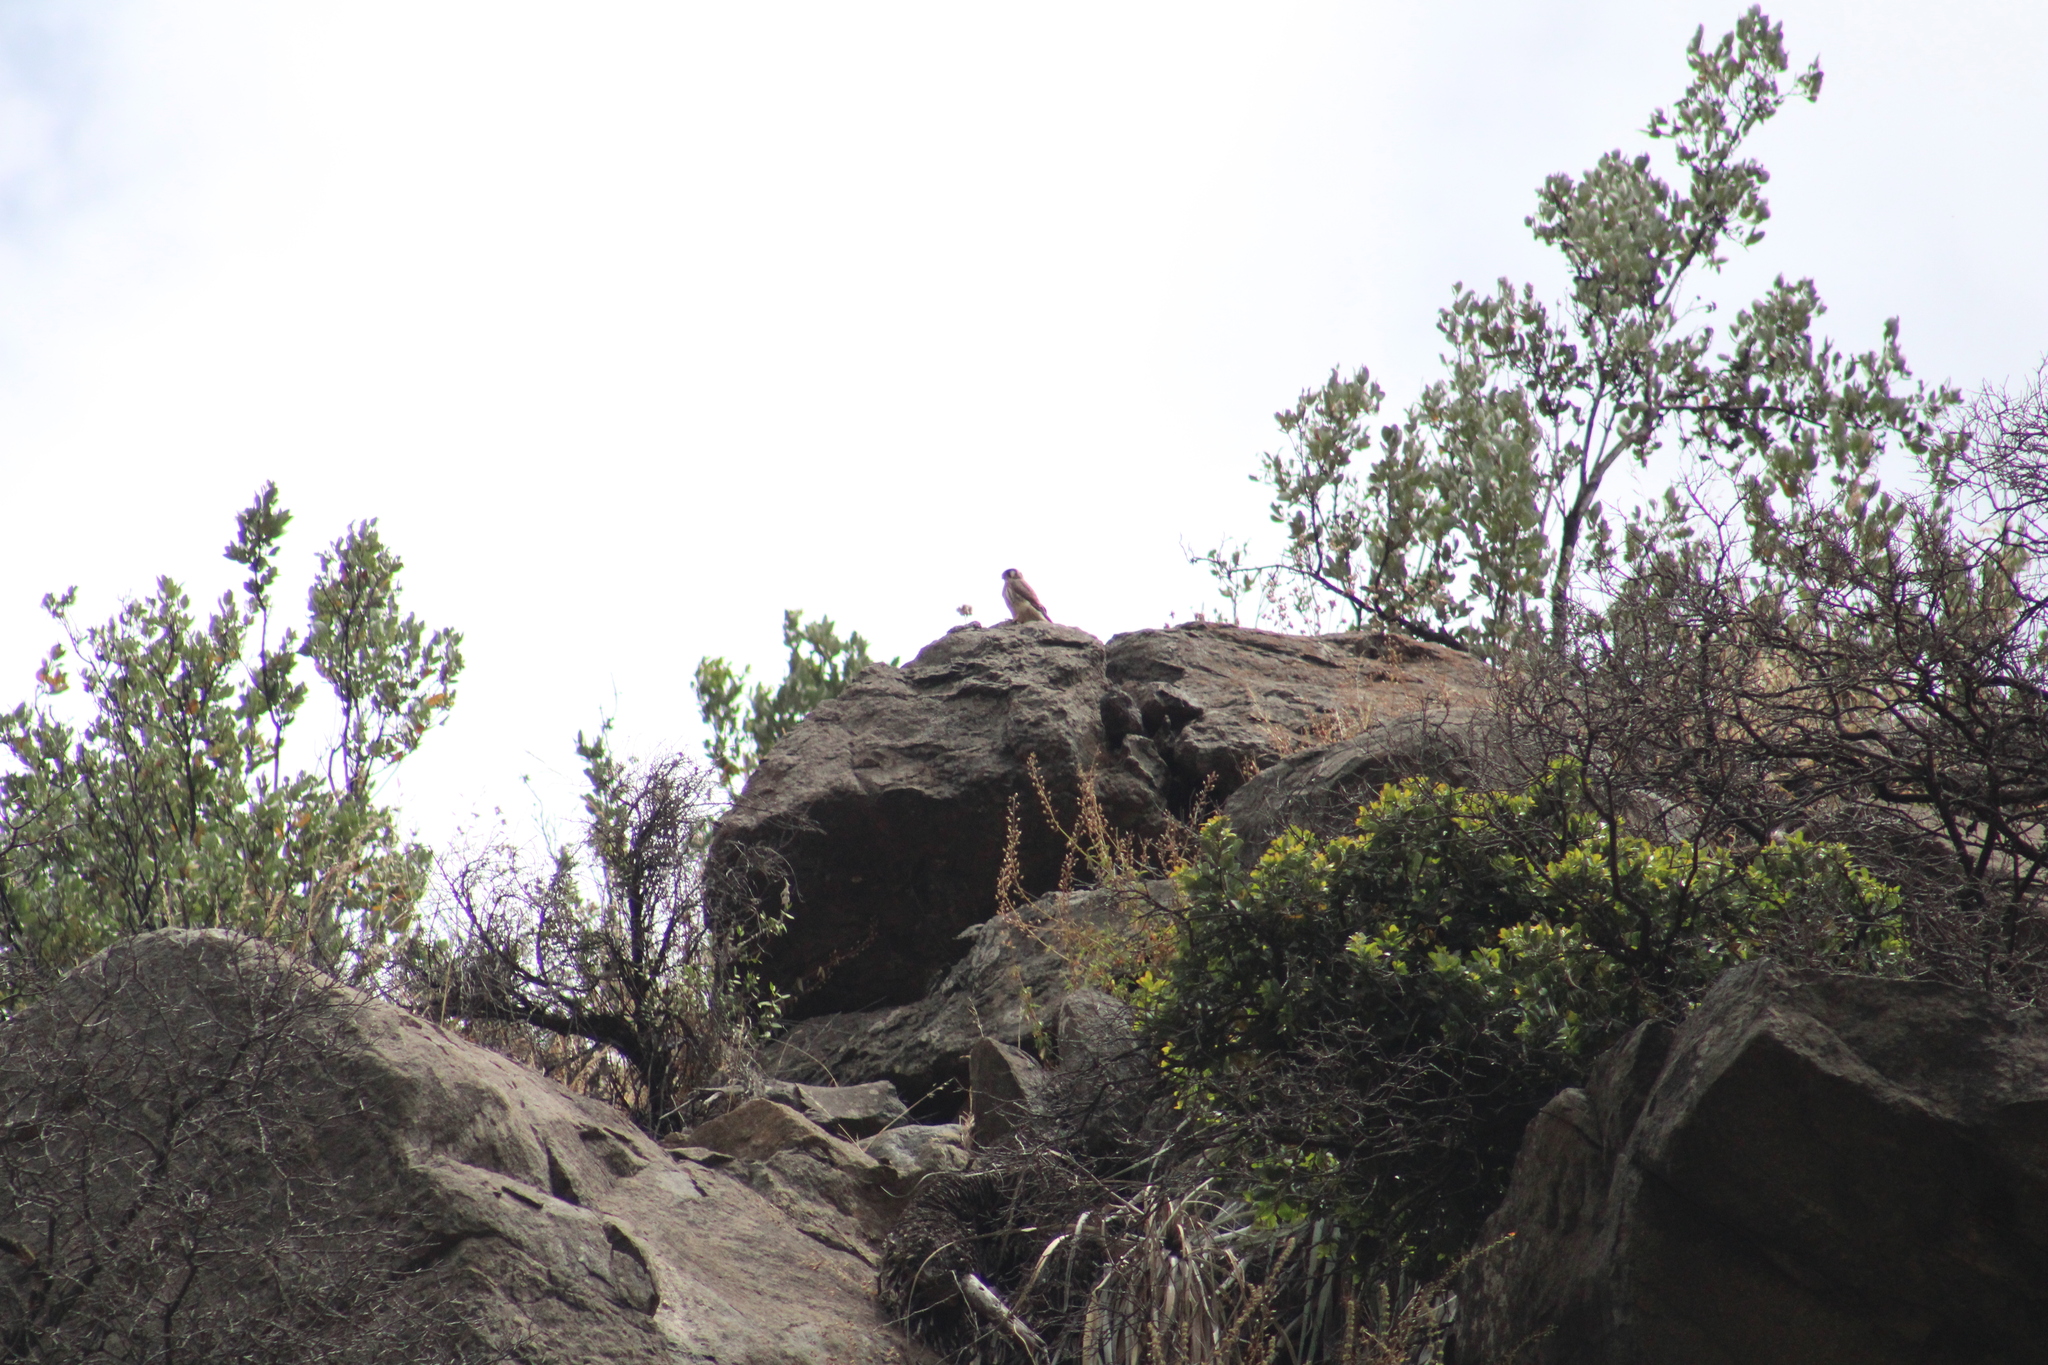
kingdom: Animalia
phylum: Chordata
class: Aves
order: Falconiformes
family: Falconidae
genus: Falco
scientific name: Falco sparverius
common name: American kestrel
